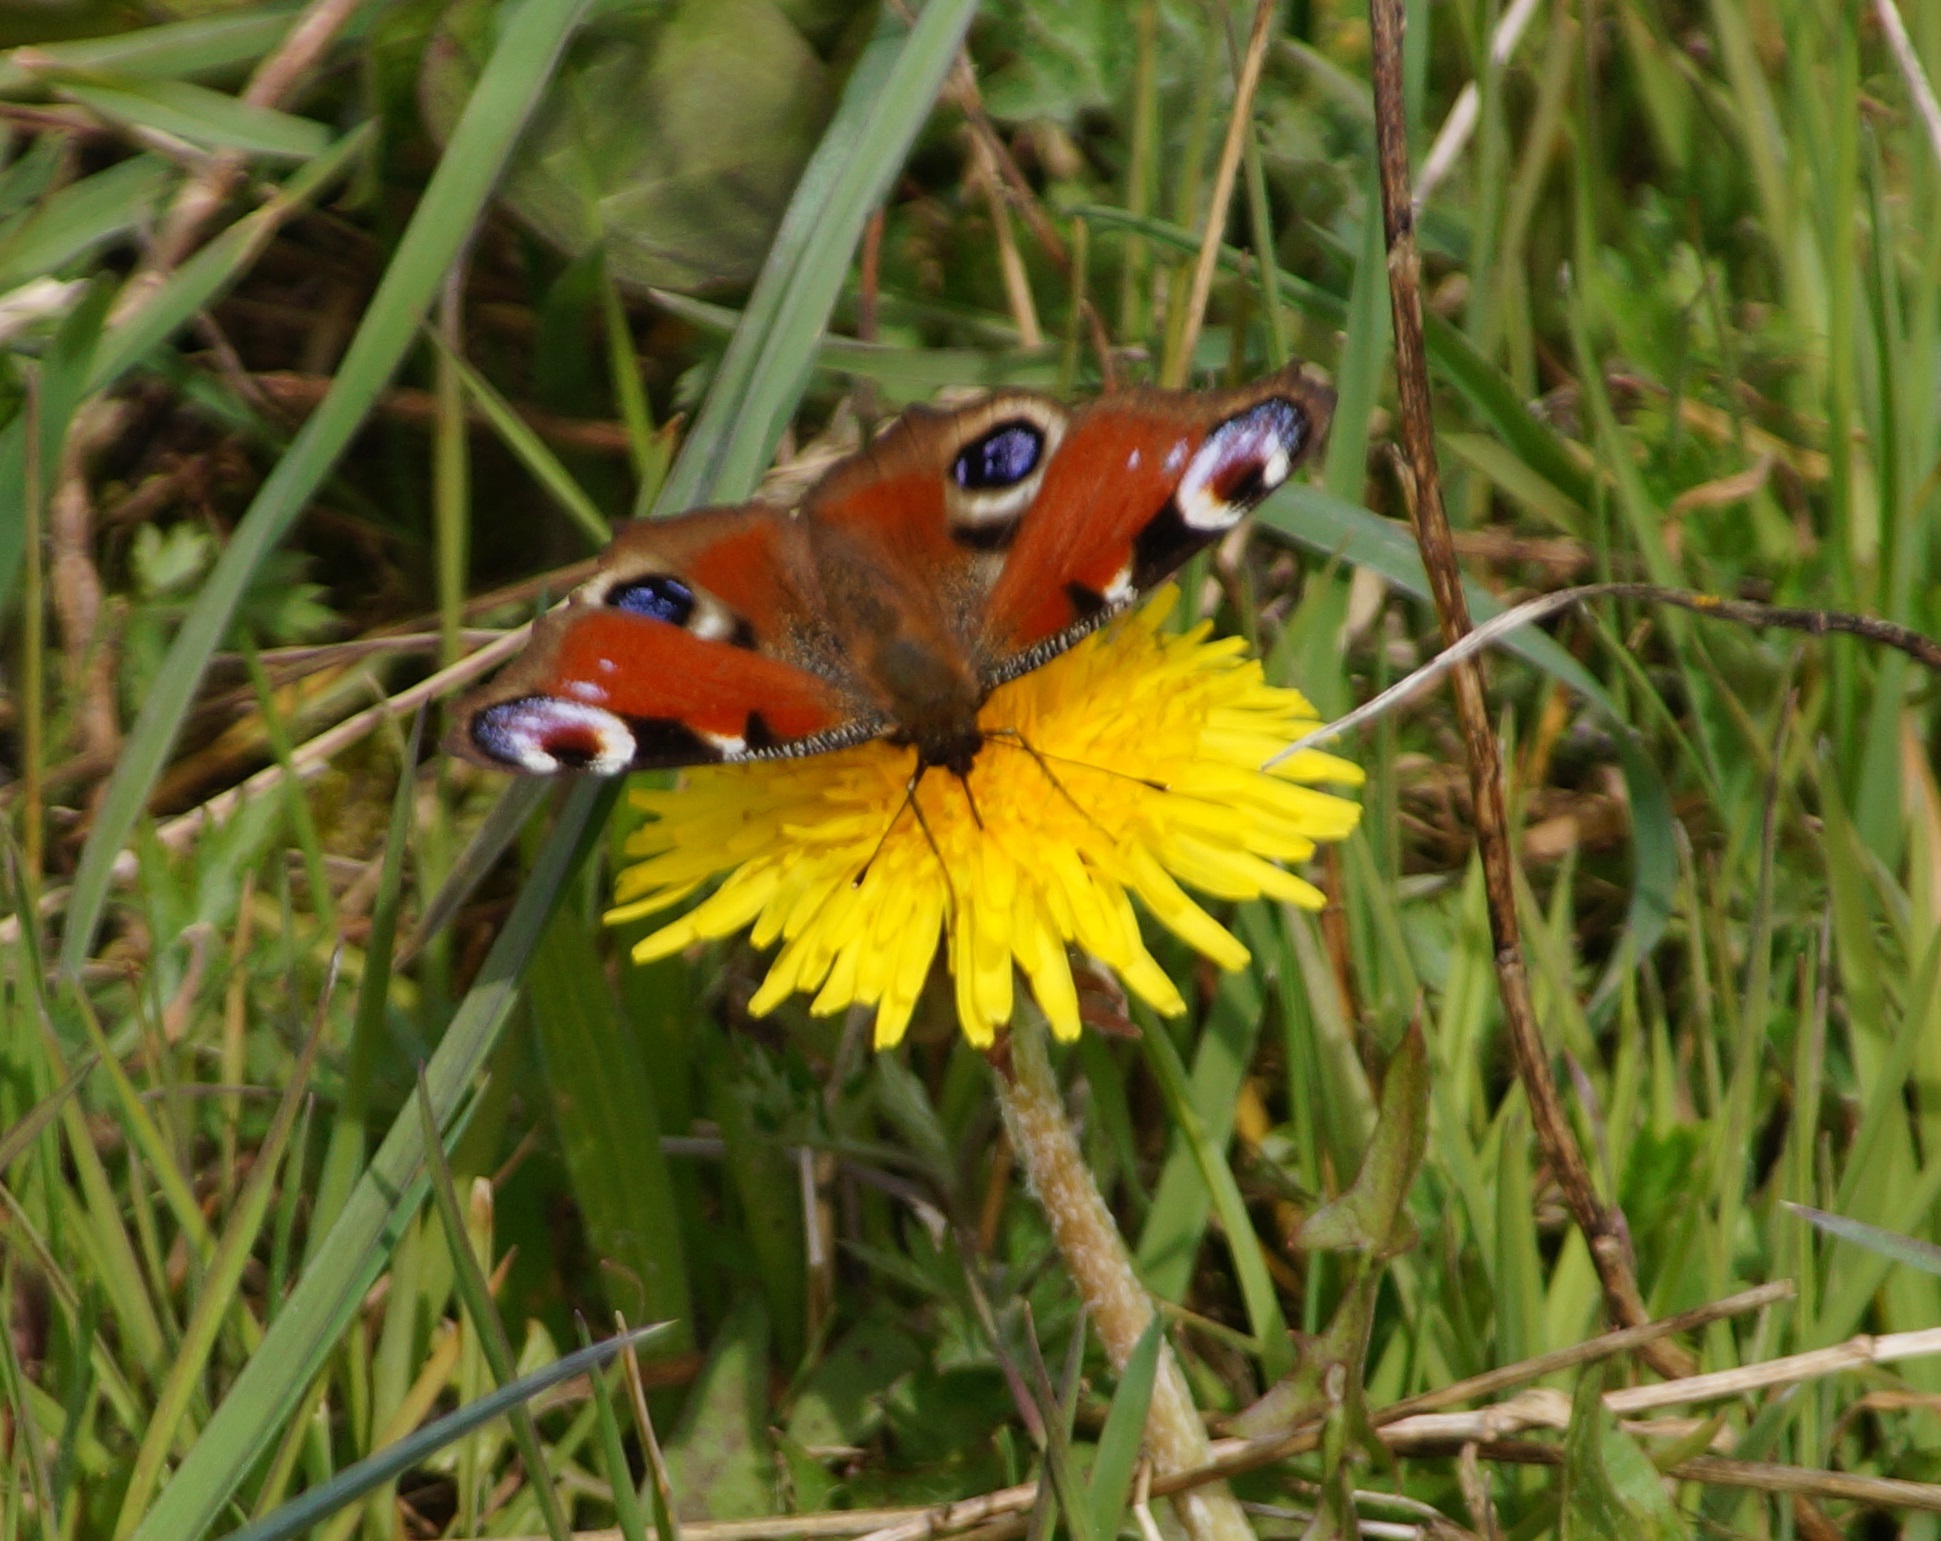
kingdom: Animalia
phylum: Arthropoda
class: Insecta
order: Lepidoptera
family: Nymphalidae
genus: Aglais
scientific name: Aglais io
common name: Peacock
